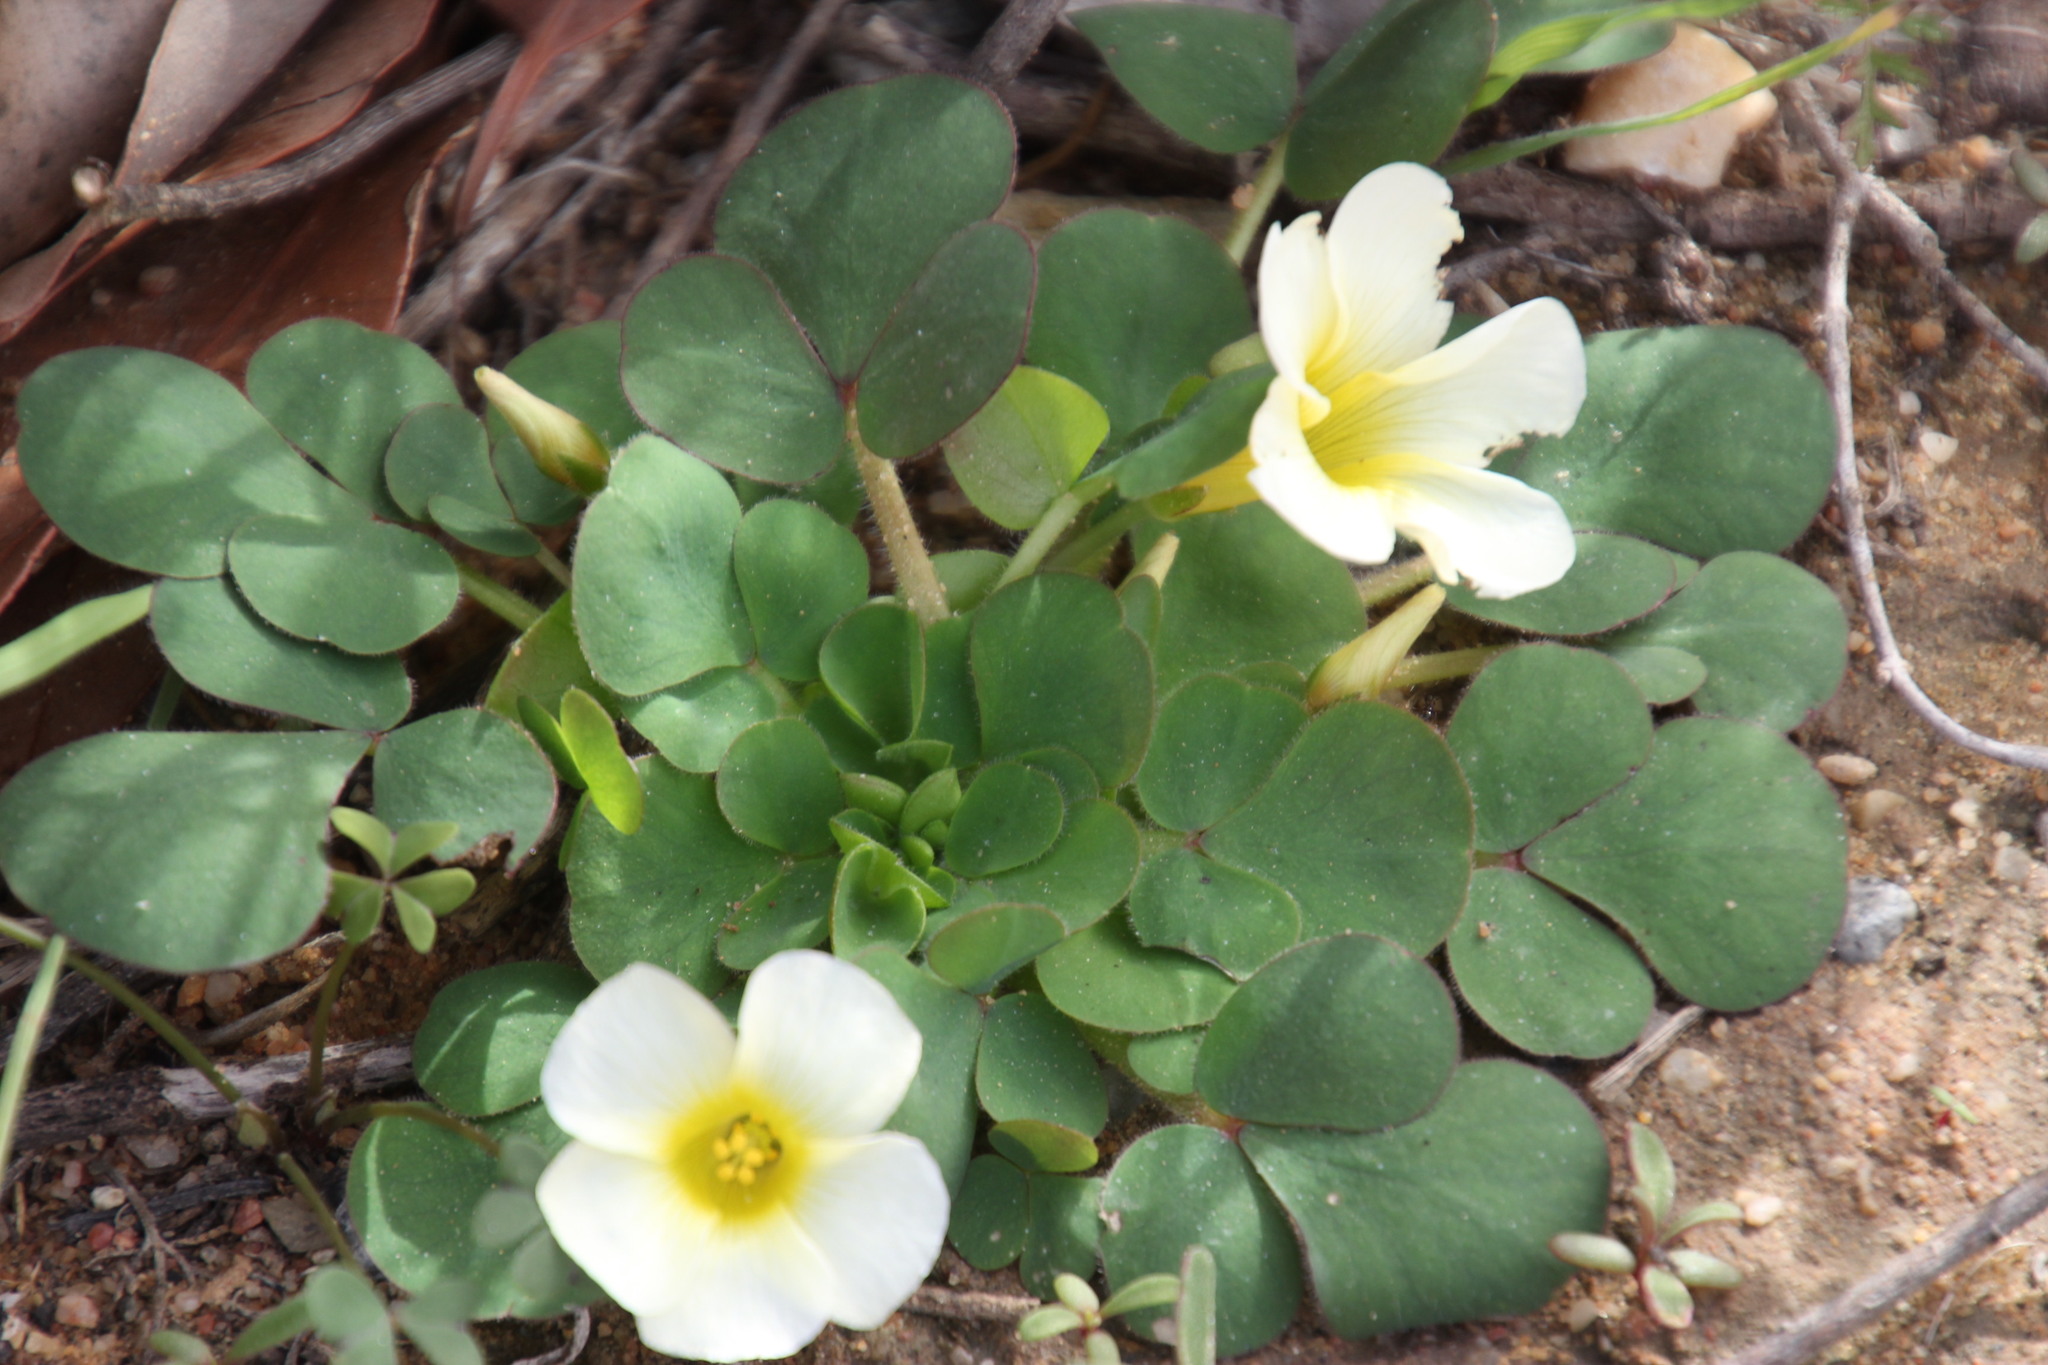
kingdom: Plantae
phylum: Tracheophyta
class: Magnoliopsida
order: Oxalidales
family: Oxalidaceae
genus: Oxalis
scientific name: Oxalis purpurea
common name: Purple woodsorrel
